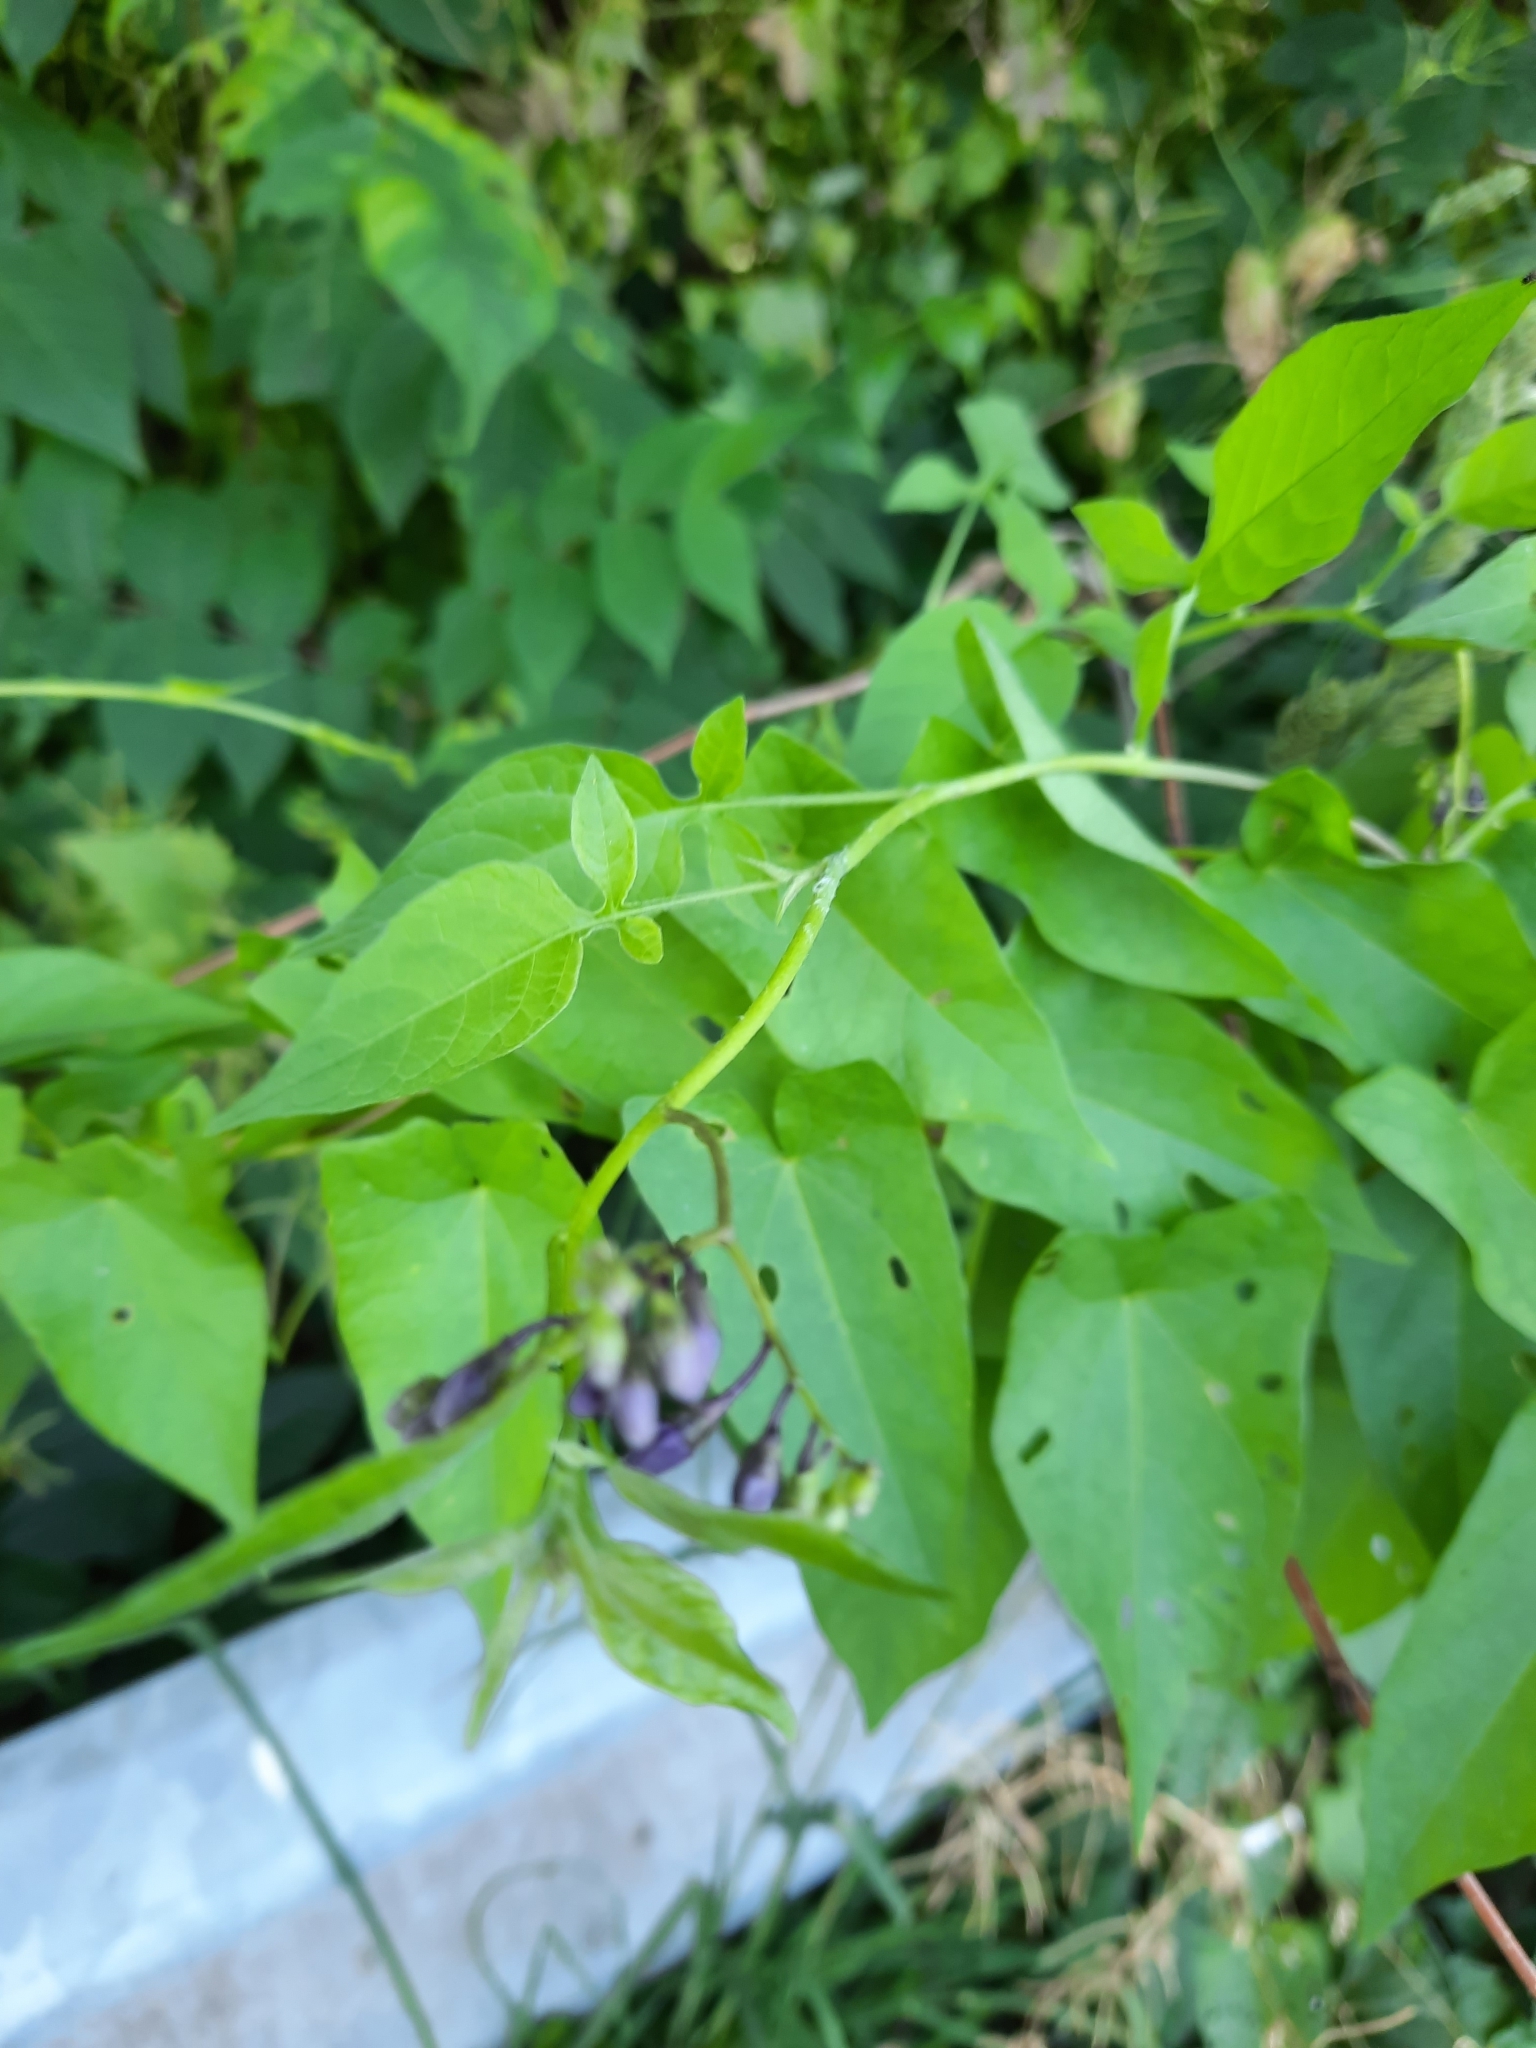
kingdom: Plantae
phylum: Tracheophyta
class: Magnoliopsida
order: Solanales
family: Solanaceae
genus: Solanum
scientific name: Solanum dulcamara
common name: Climbing nightshade
